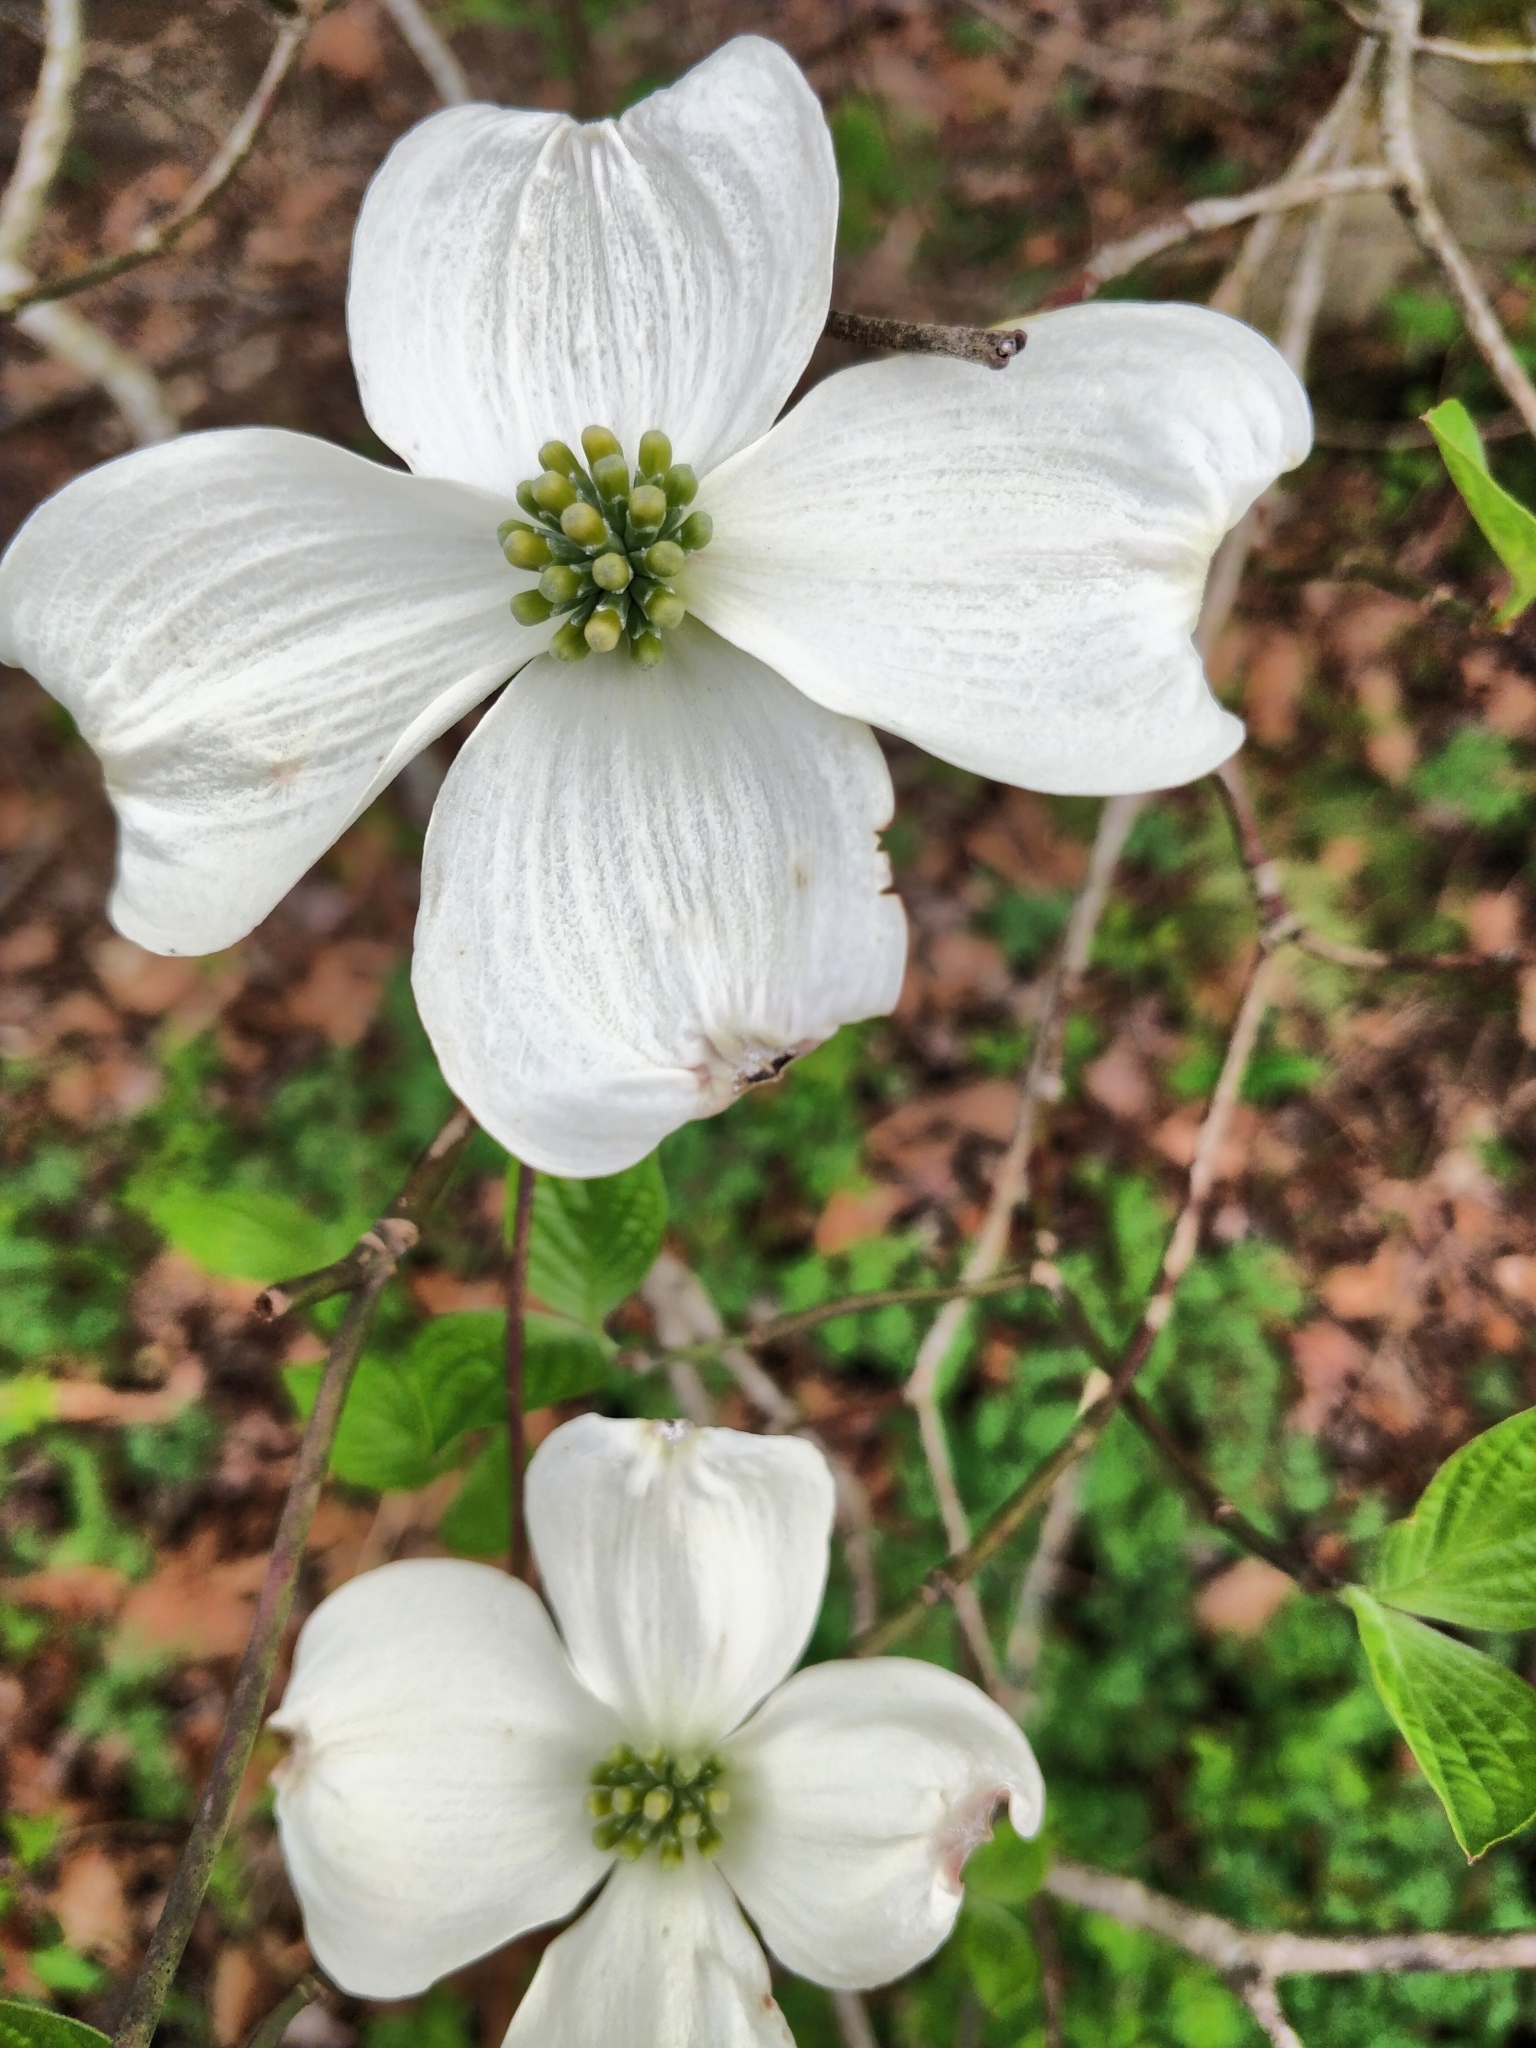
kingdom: Plantae
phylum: Tracheophyta
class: Magnoliopsida
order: Cornales
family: Cornaceae
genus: Cornus
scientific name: Cornus florida
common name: Flowering dogwood
